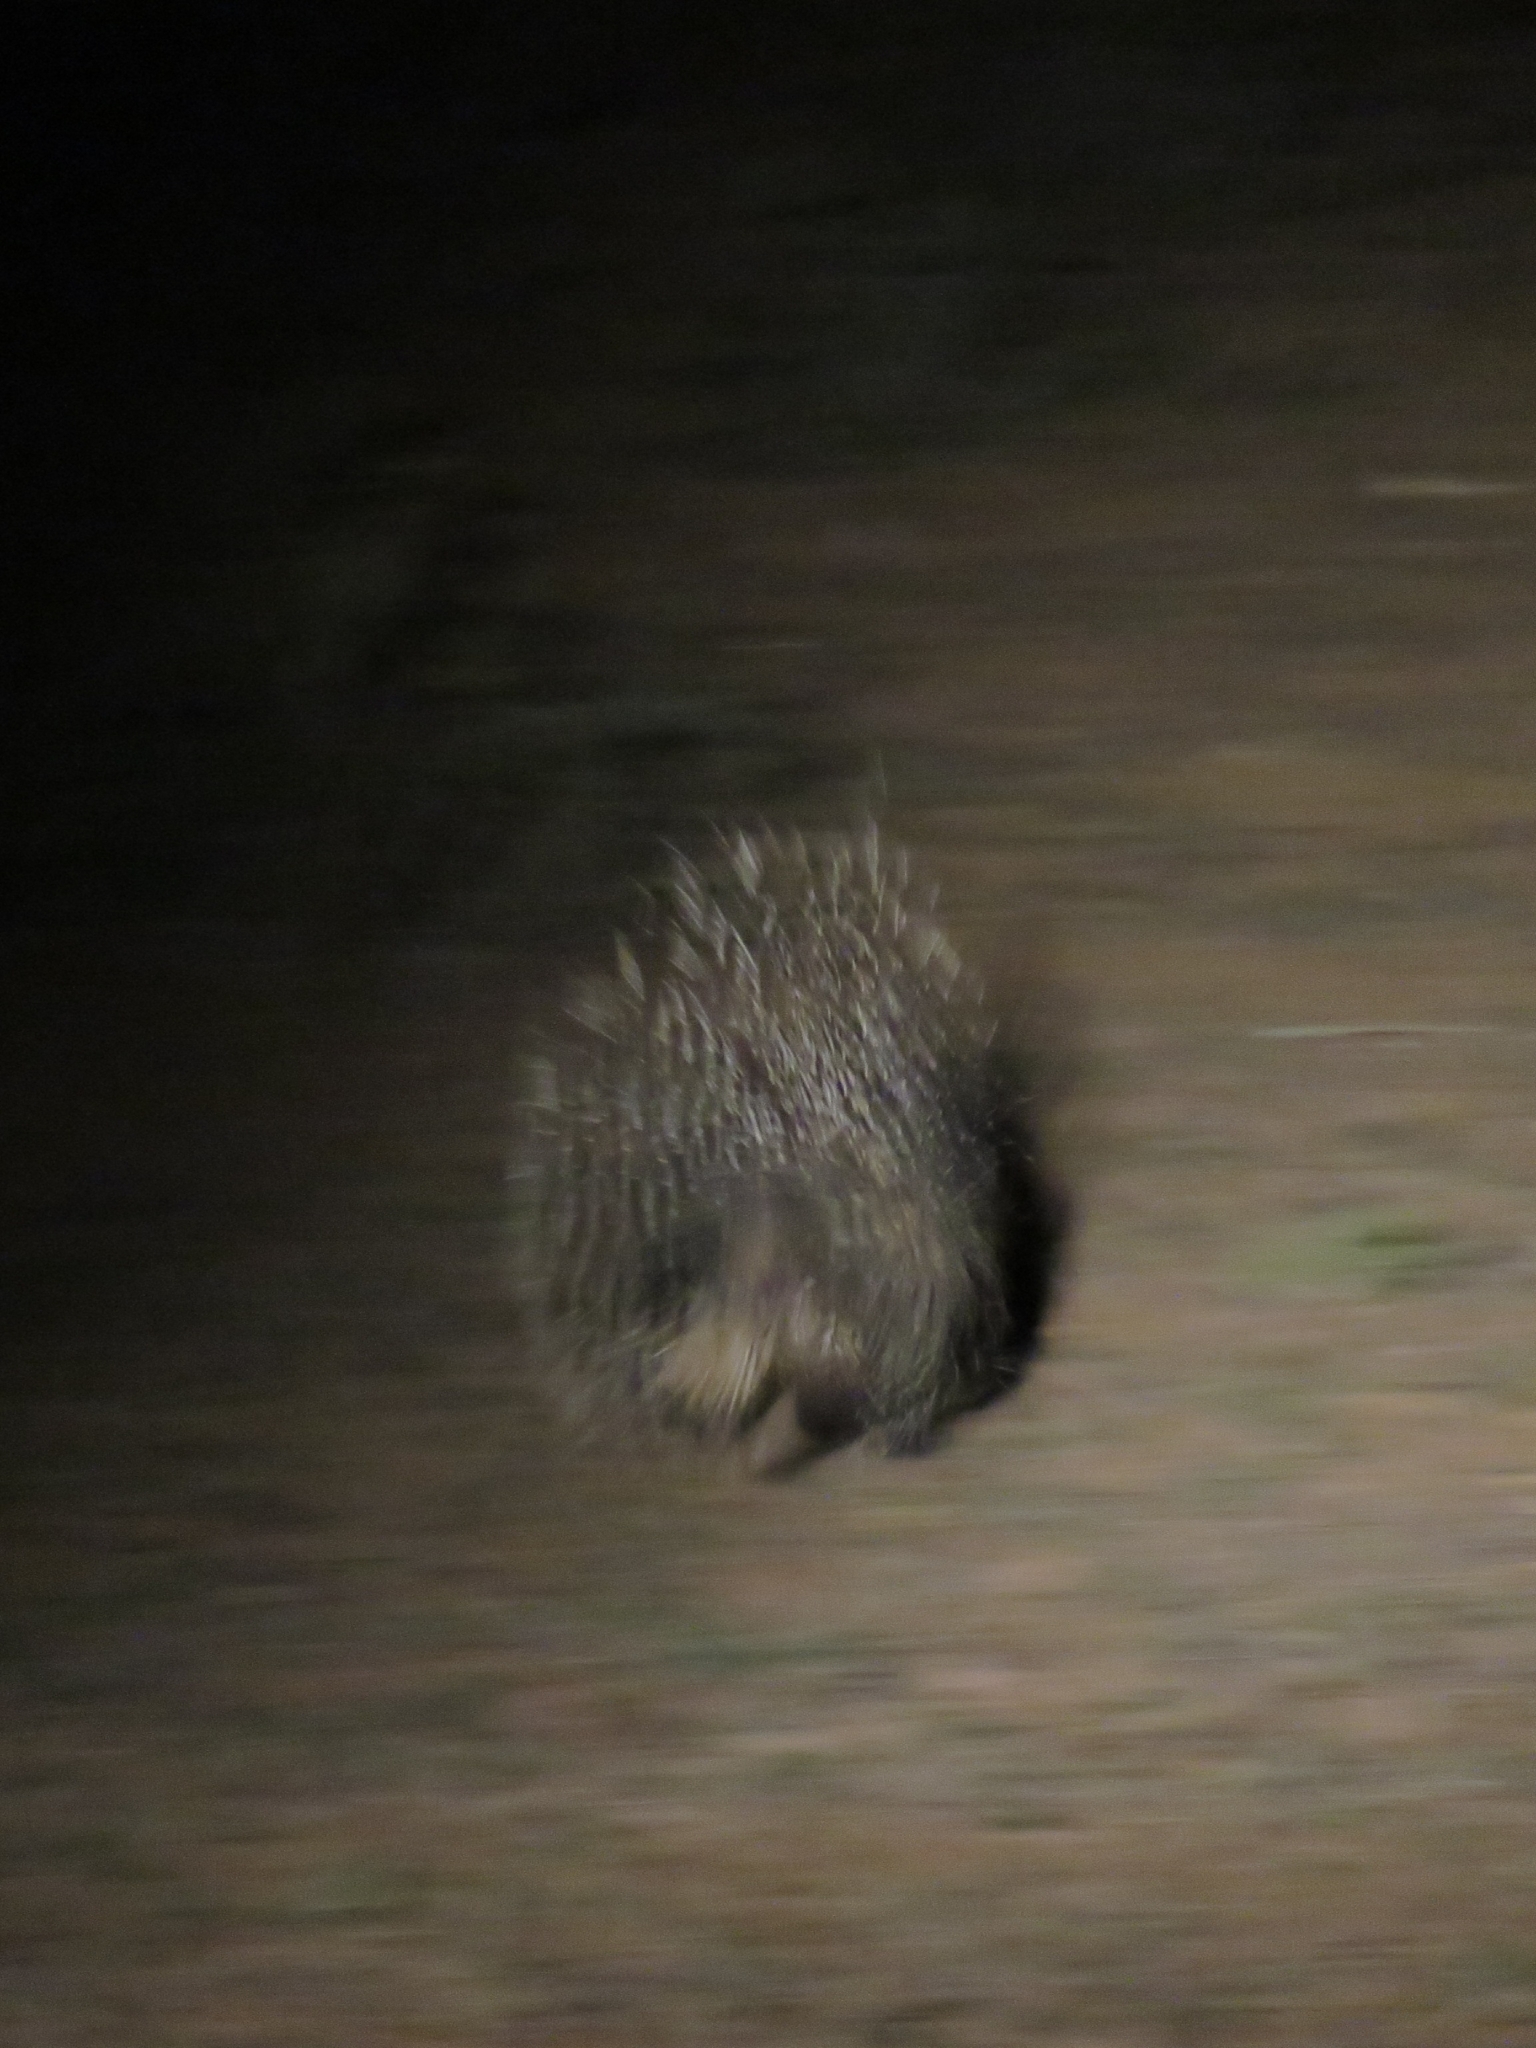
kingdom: Animalia
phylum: Chordata
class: Mammalia
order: Rodentia
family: Hystricidae
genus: Hystrix
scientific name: Hystrix africaeaustralis
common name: Cape porcupine
